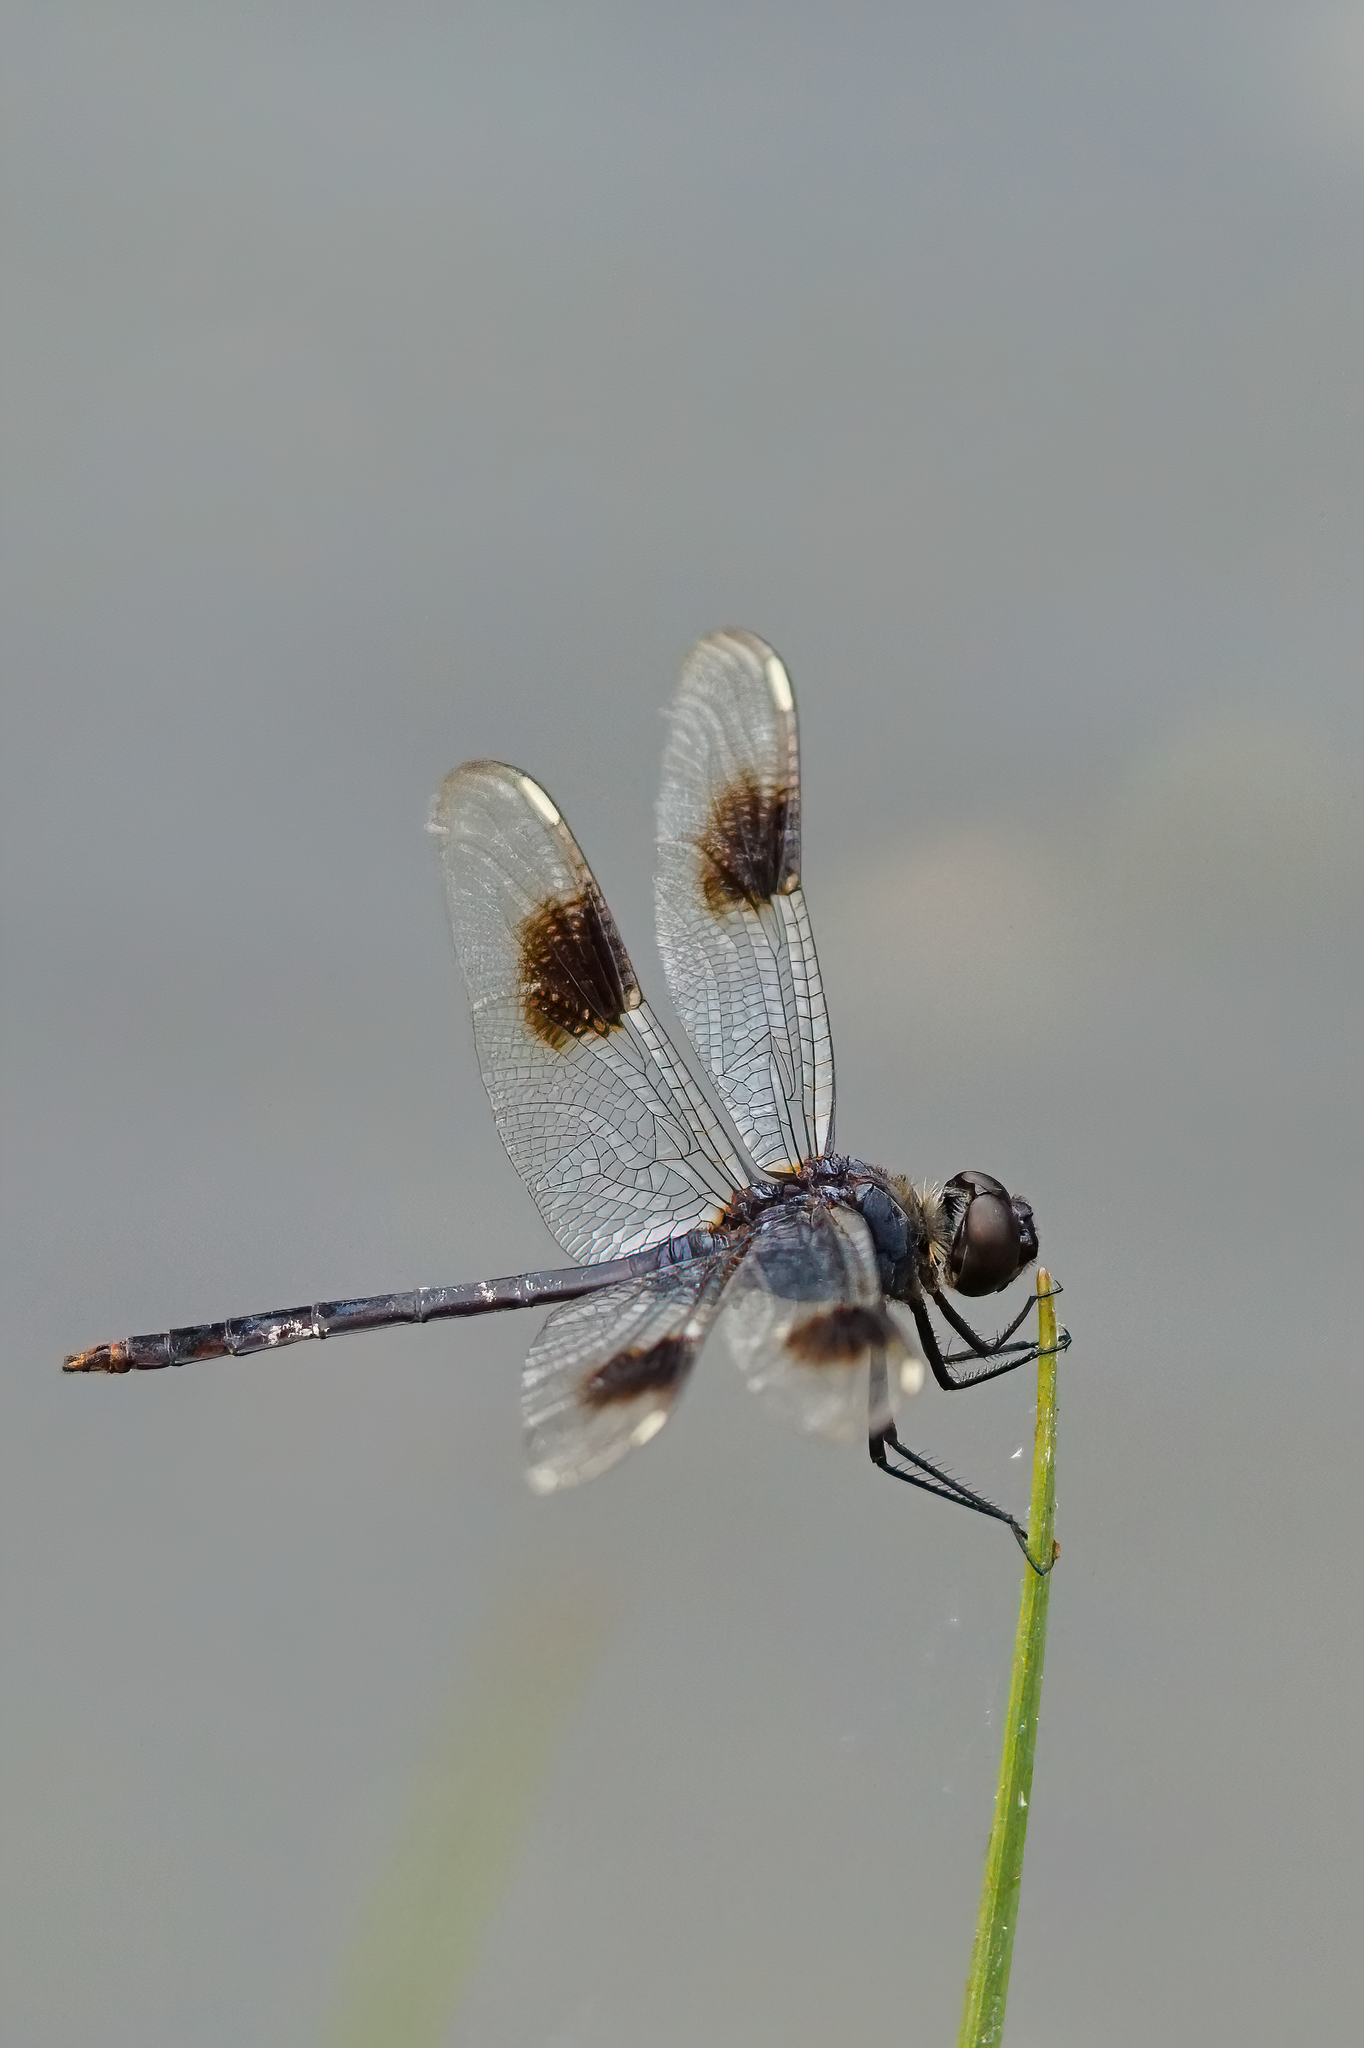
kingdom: Animalia
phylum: Arthropoda
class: Insecta
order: Odonata
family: Libellulidae
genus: Brachymesia
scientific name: Brachymesia gravida
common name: Four-spotted pennant
